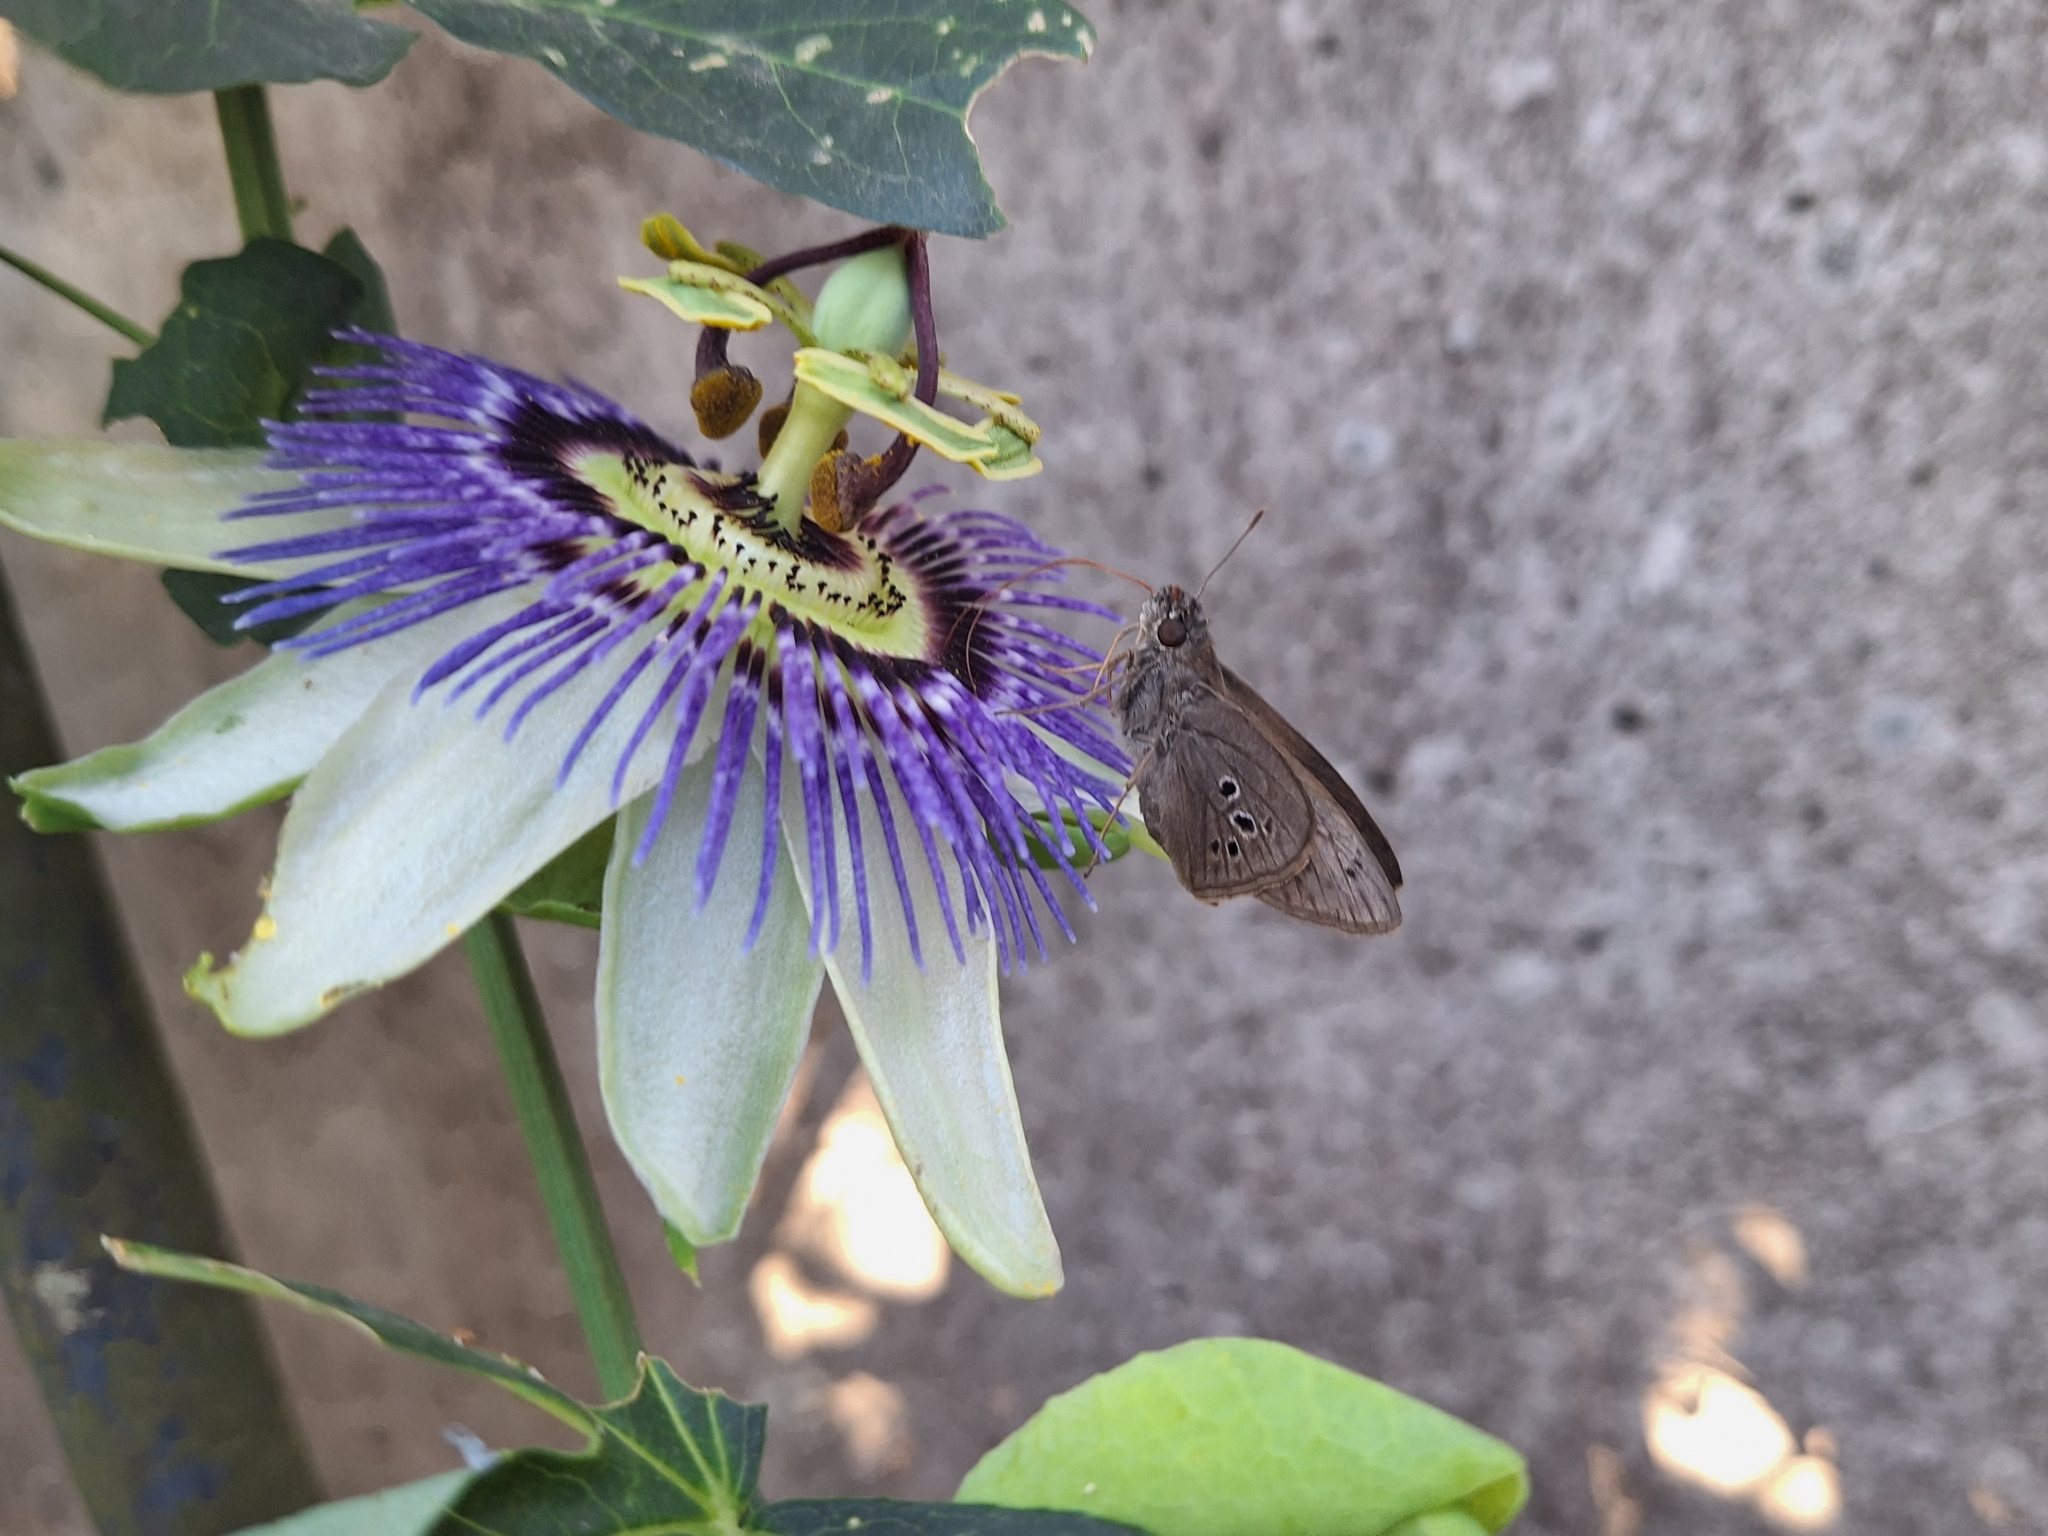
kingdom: Animalia
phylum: Arthropoda
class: Insecta
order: Lepidoptera
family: Hesperiidae
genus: Carystus
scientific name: Carystus
